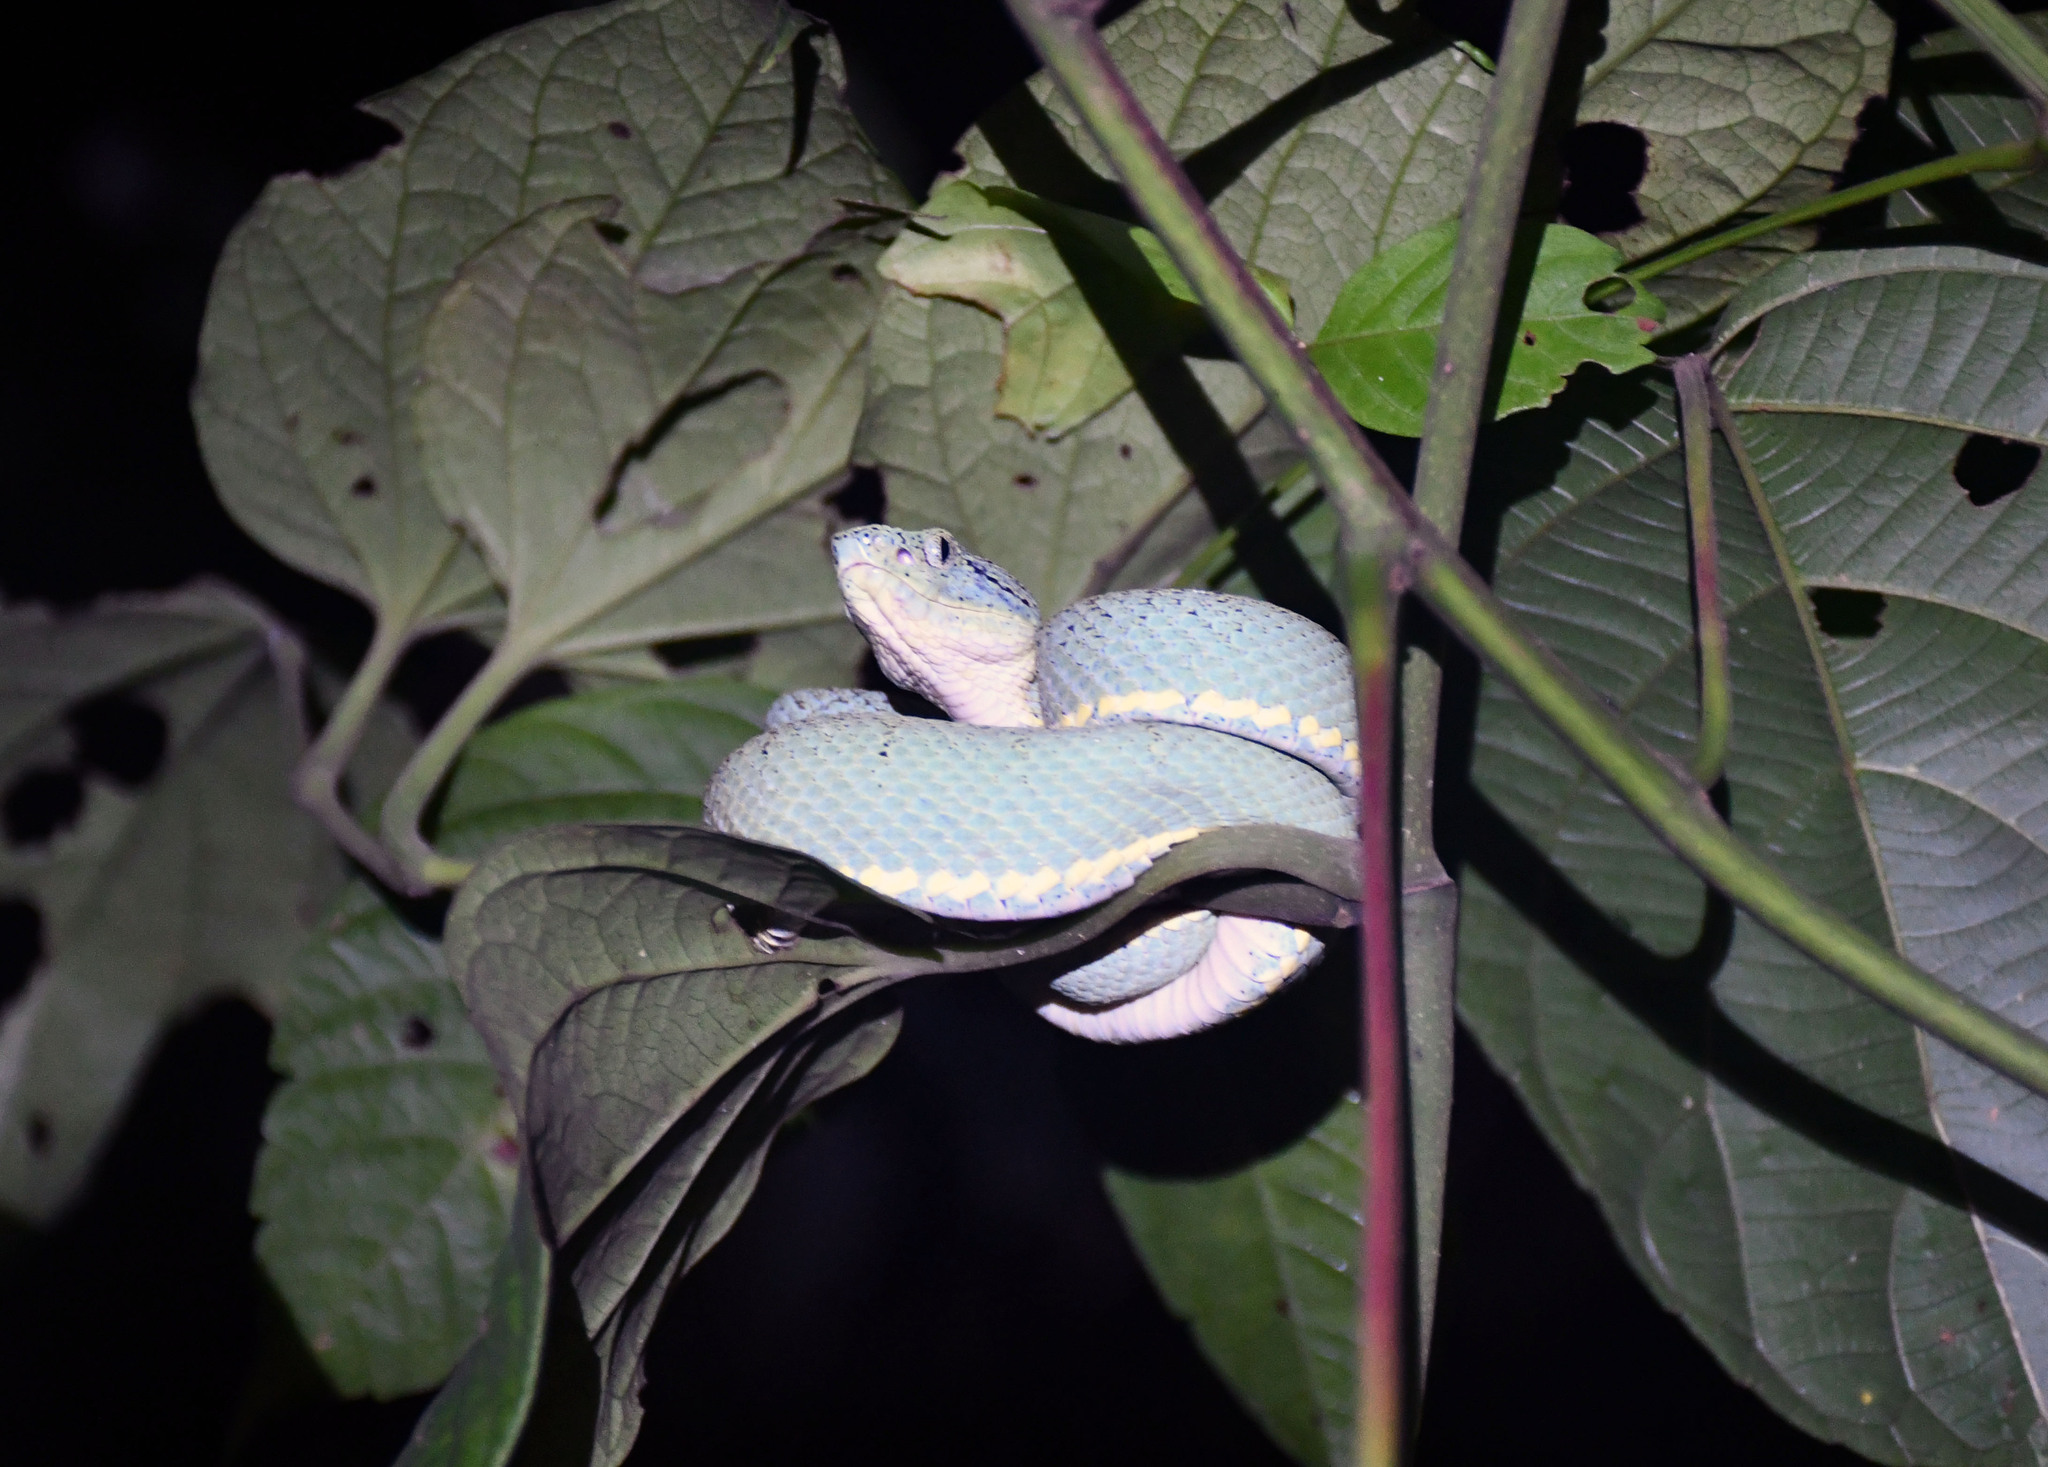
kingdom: Animalia
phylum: Chordata
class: Squamata
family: Viperidae
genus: Bothrops
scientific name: Bothrops bilineatus
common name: Green jararaca
